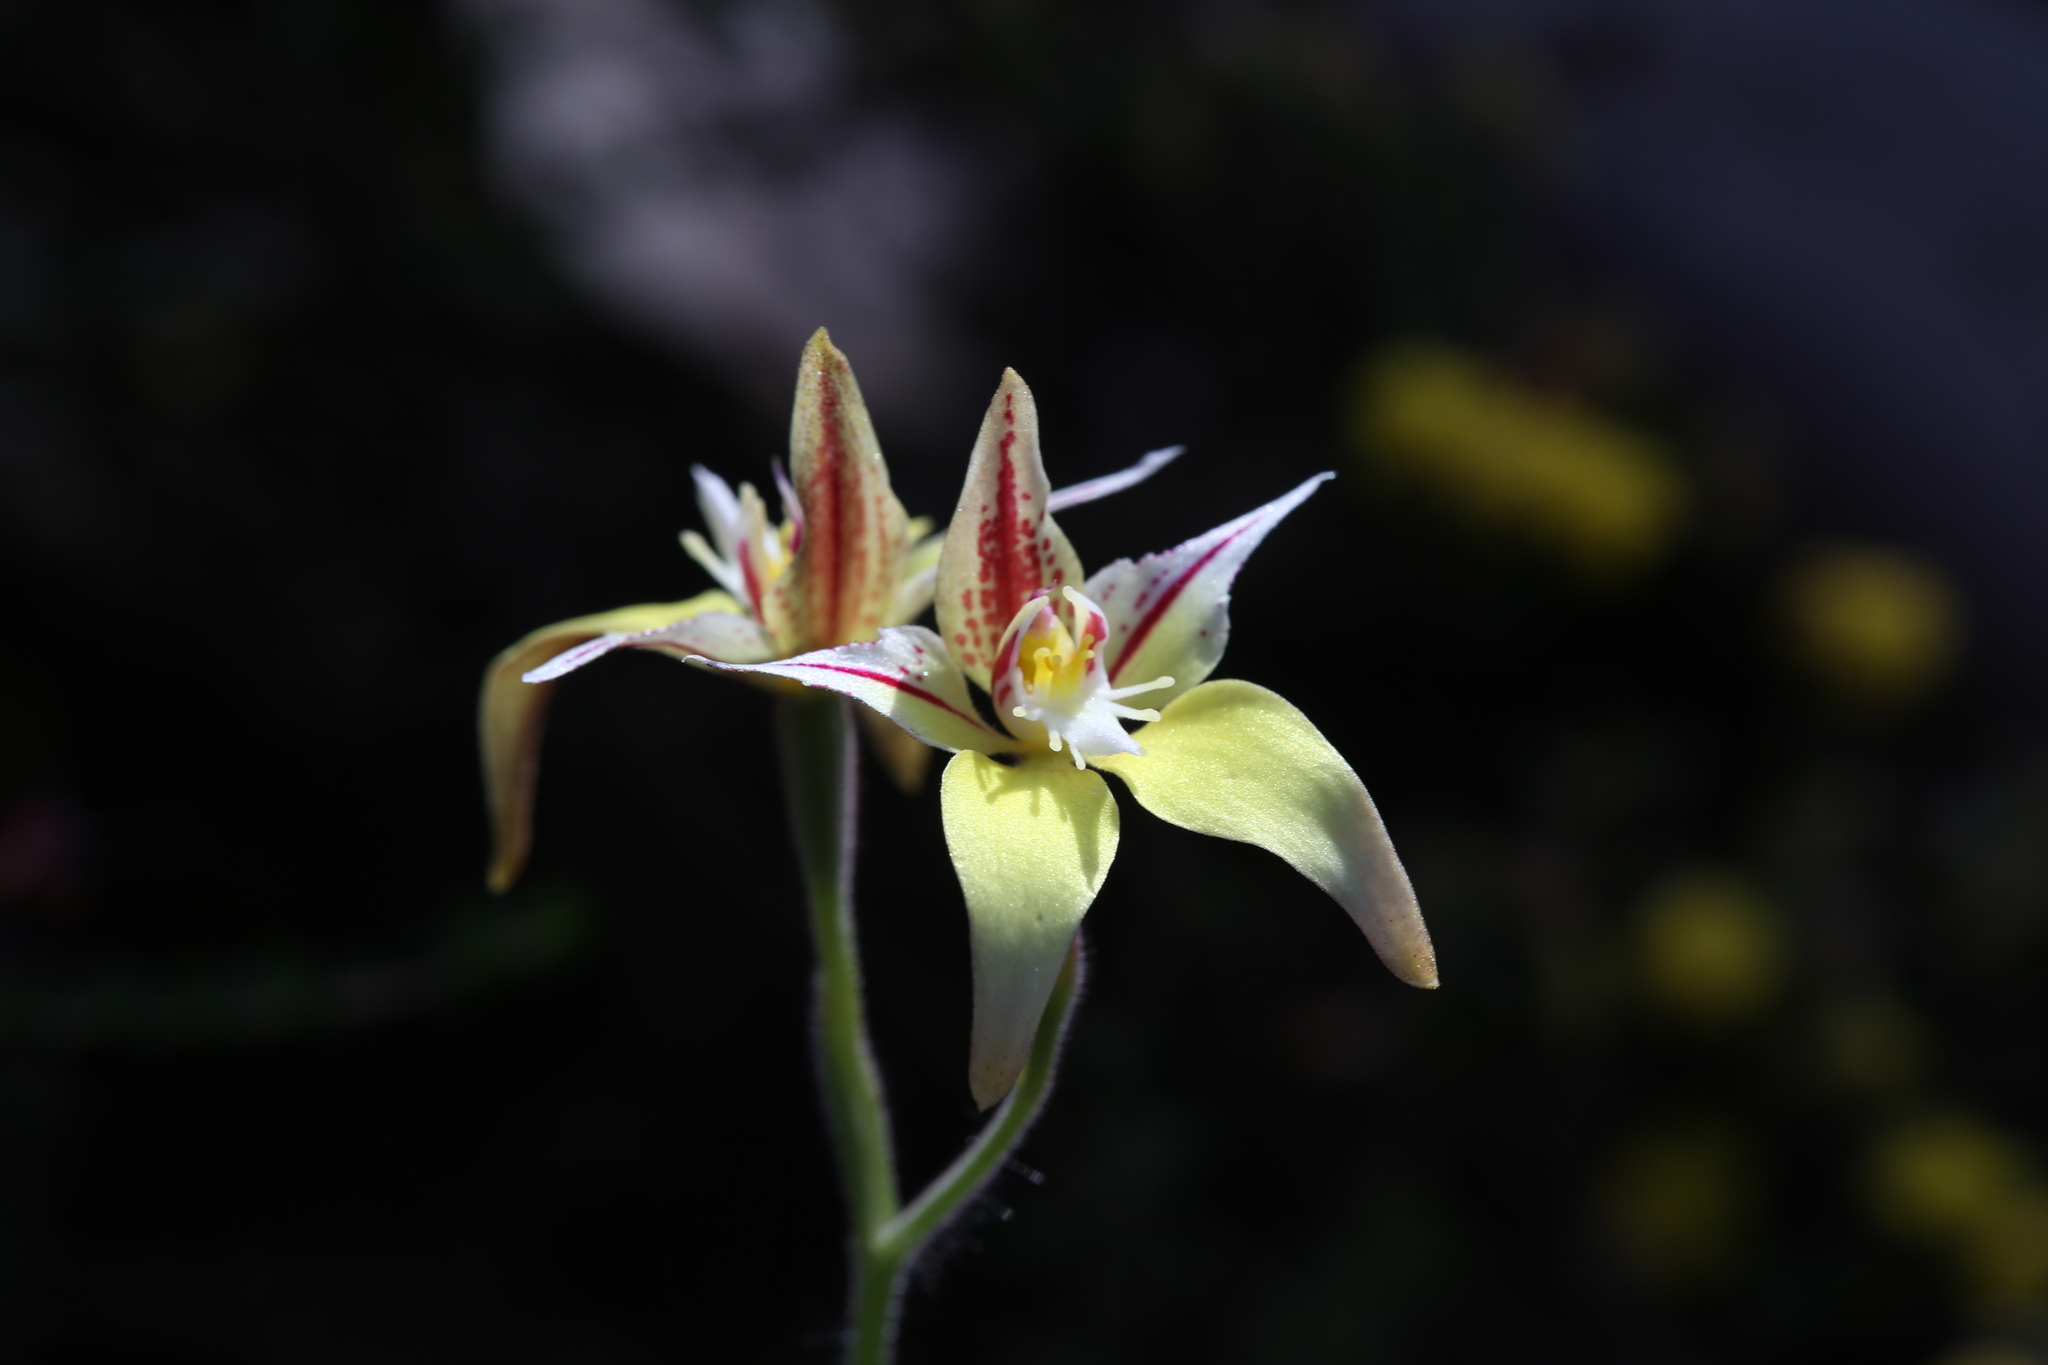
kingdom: Plantae
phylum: Tracheophyta
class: Liliopsida
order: Asparagales
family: Orchidaceae
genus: Caladenia
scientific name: Caladenia flava
